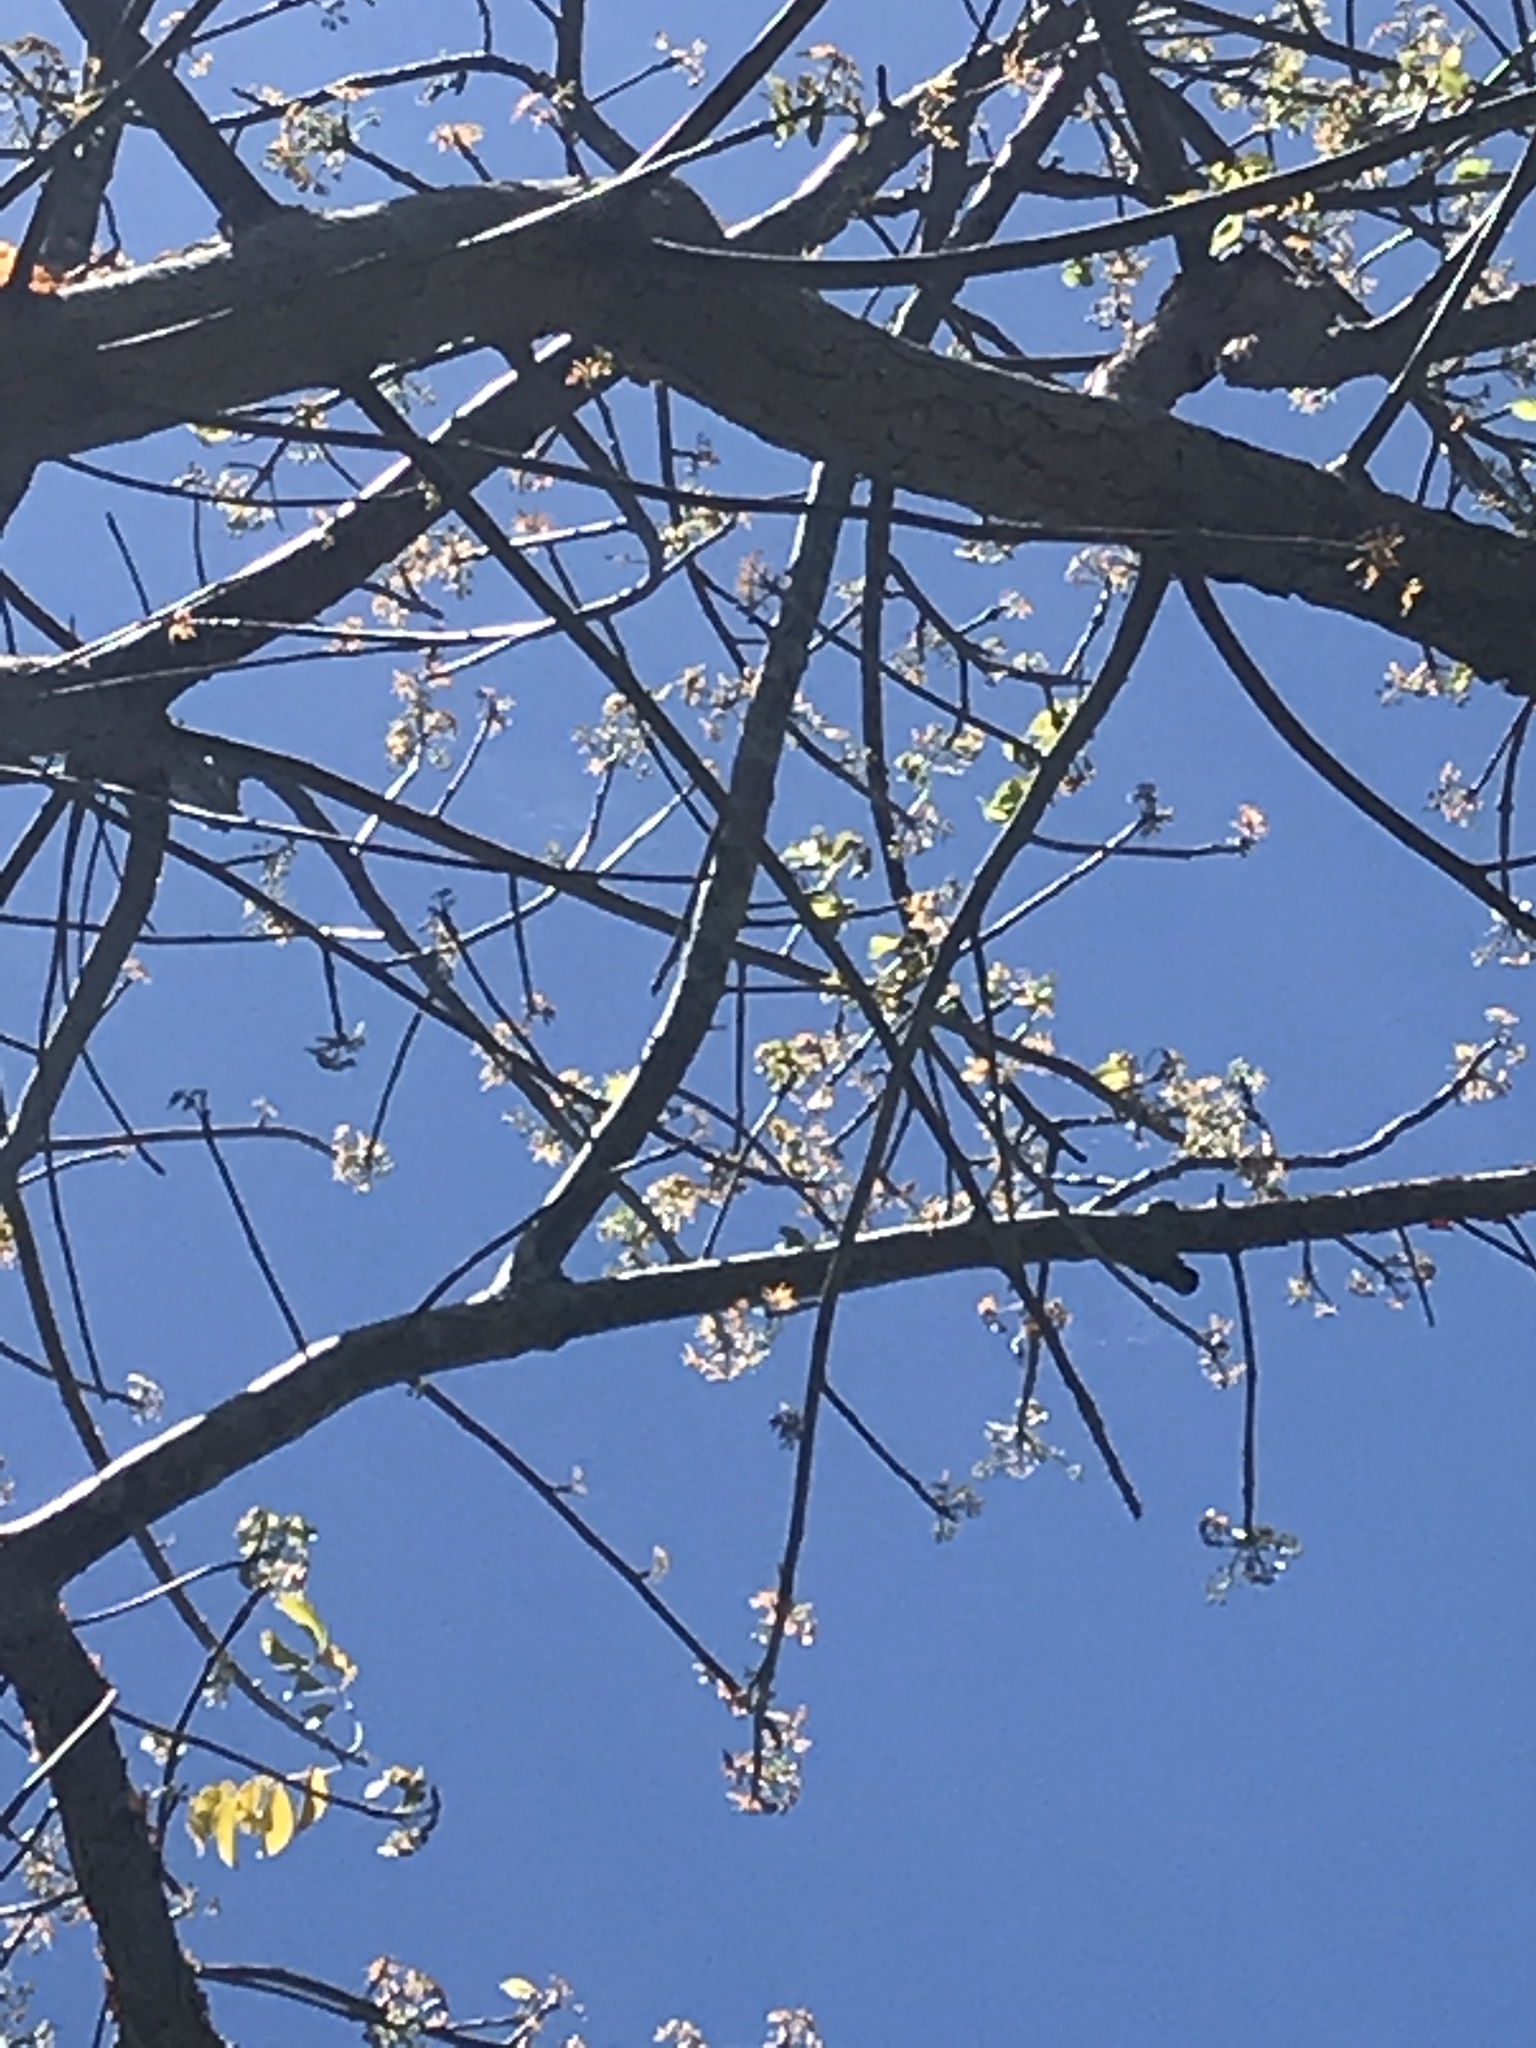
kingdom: Plantae
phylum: Tracheophyta
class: Magnoliopsida
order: Sapindales
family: Burseraceae
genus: Bursera
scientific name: Bursera simaruba
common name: Turpentine tree
